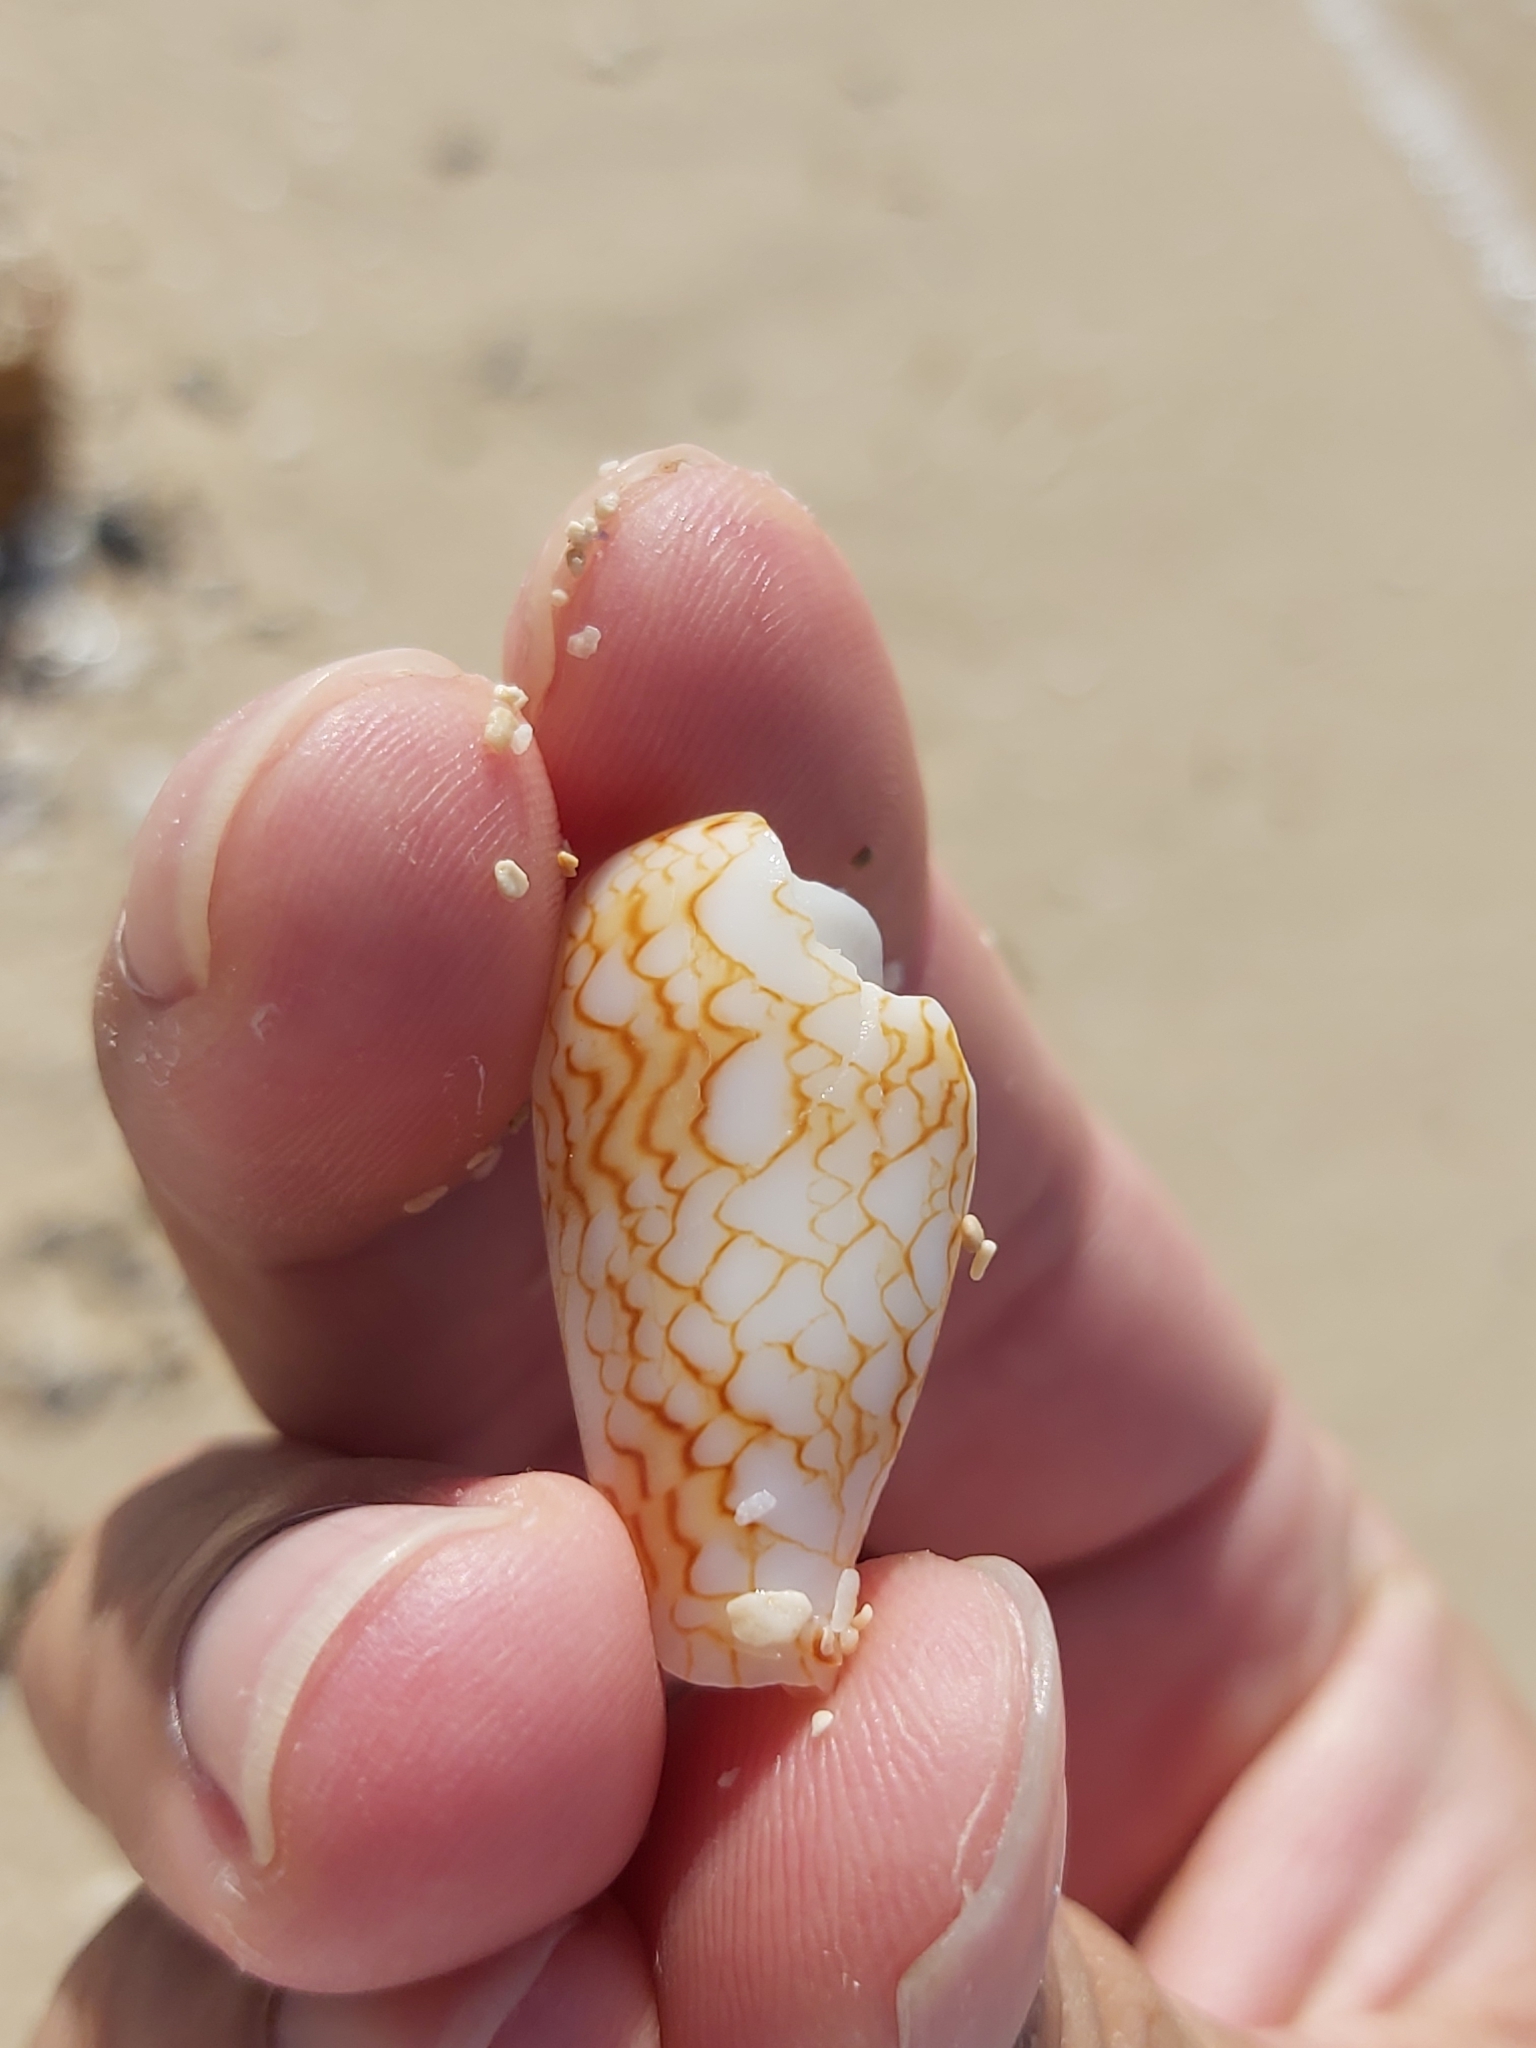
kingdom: Animalia
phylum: Mollusca
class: Gastropoda
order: Neogastropoda
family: Conidae
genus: Conus
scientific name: Conus textile
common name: Cloth-of-gold cone
